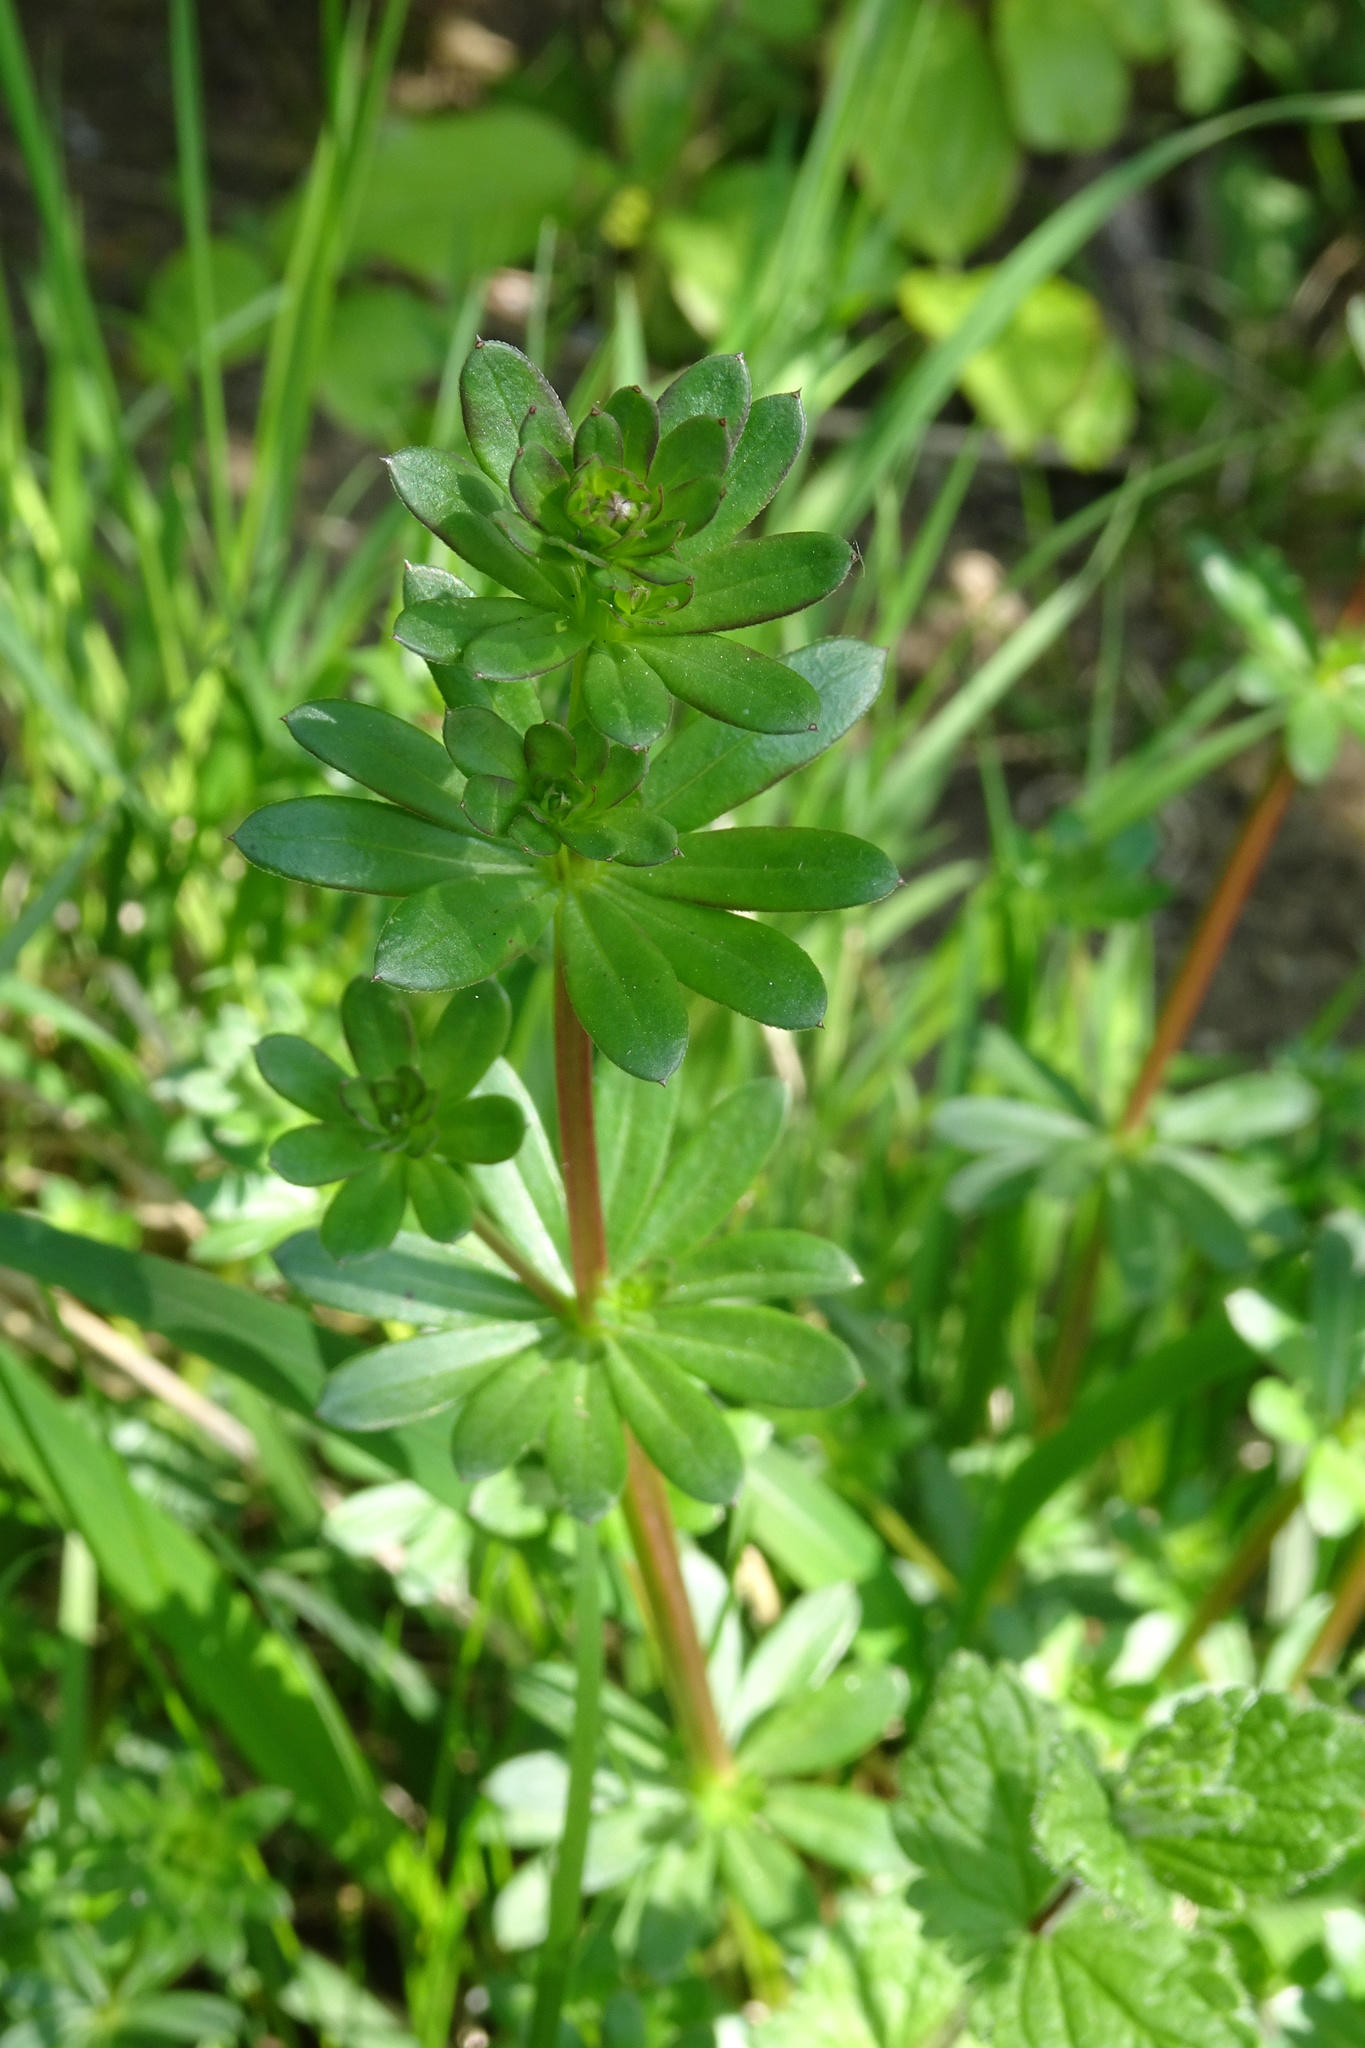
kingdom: Plantae
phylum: Tracheophyta
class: Magnoliopsida
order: Gentianales
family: Rubiaceae
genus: Galium
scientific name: Galium odoratum
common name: Sweet woodruff
